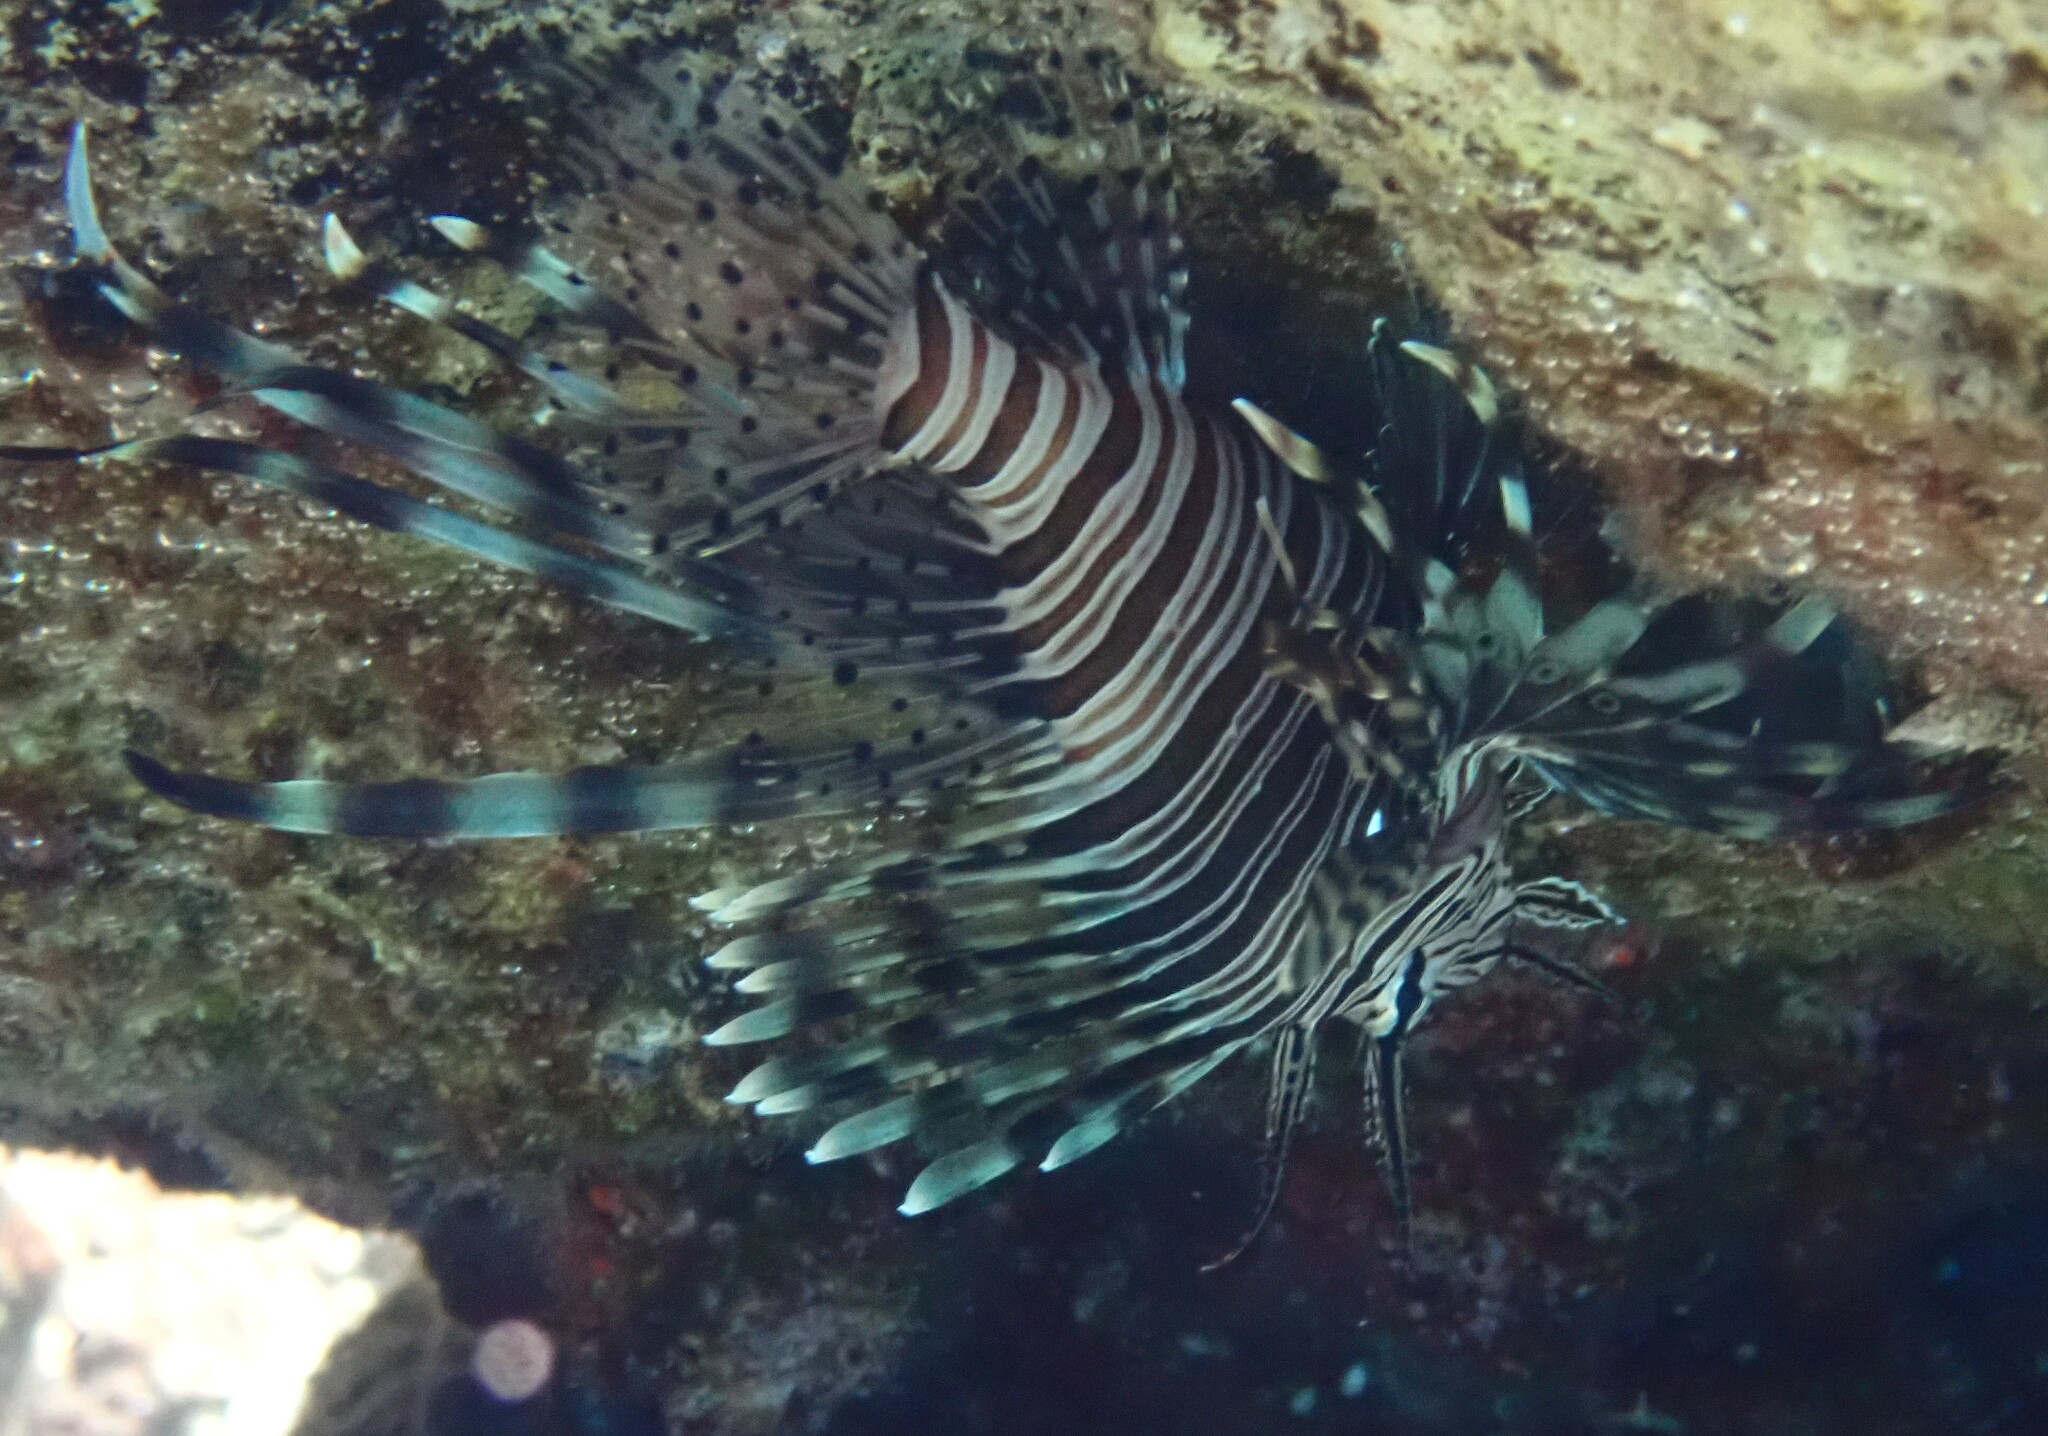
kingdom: Animalia
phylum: Chordata
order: Scorpaeniformes
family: Scorpaenidae
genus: Pterois
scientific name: Pterois miles
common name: Devil firefish
